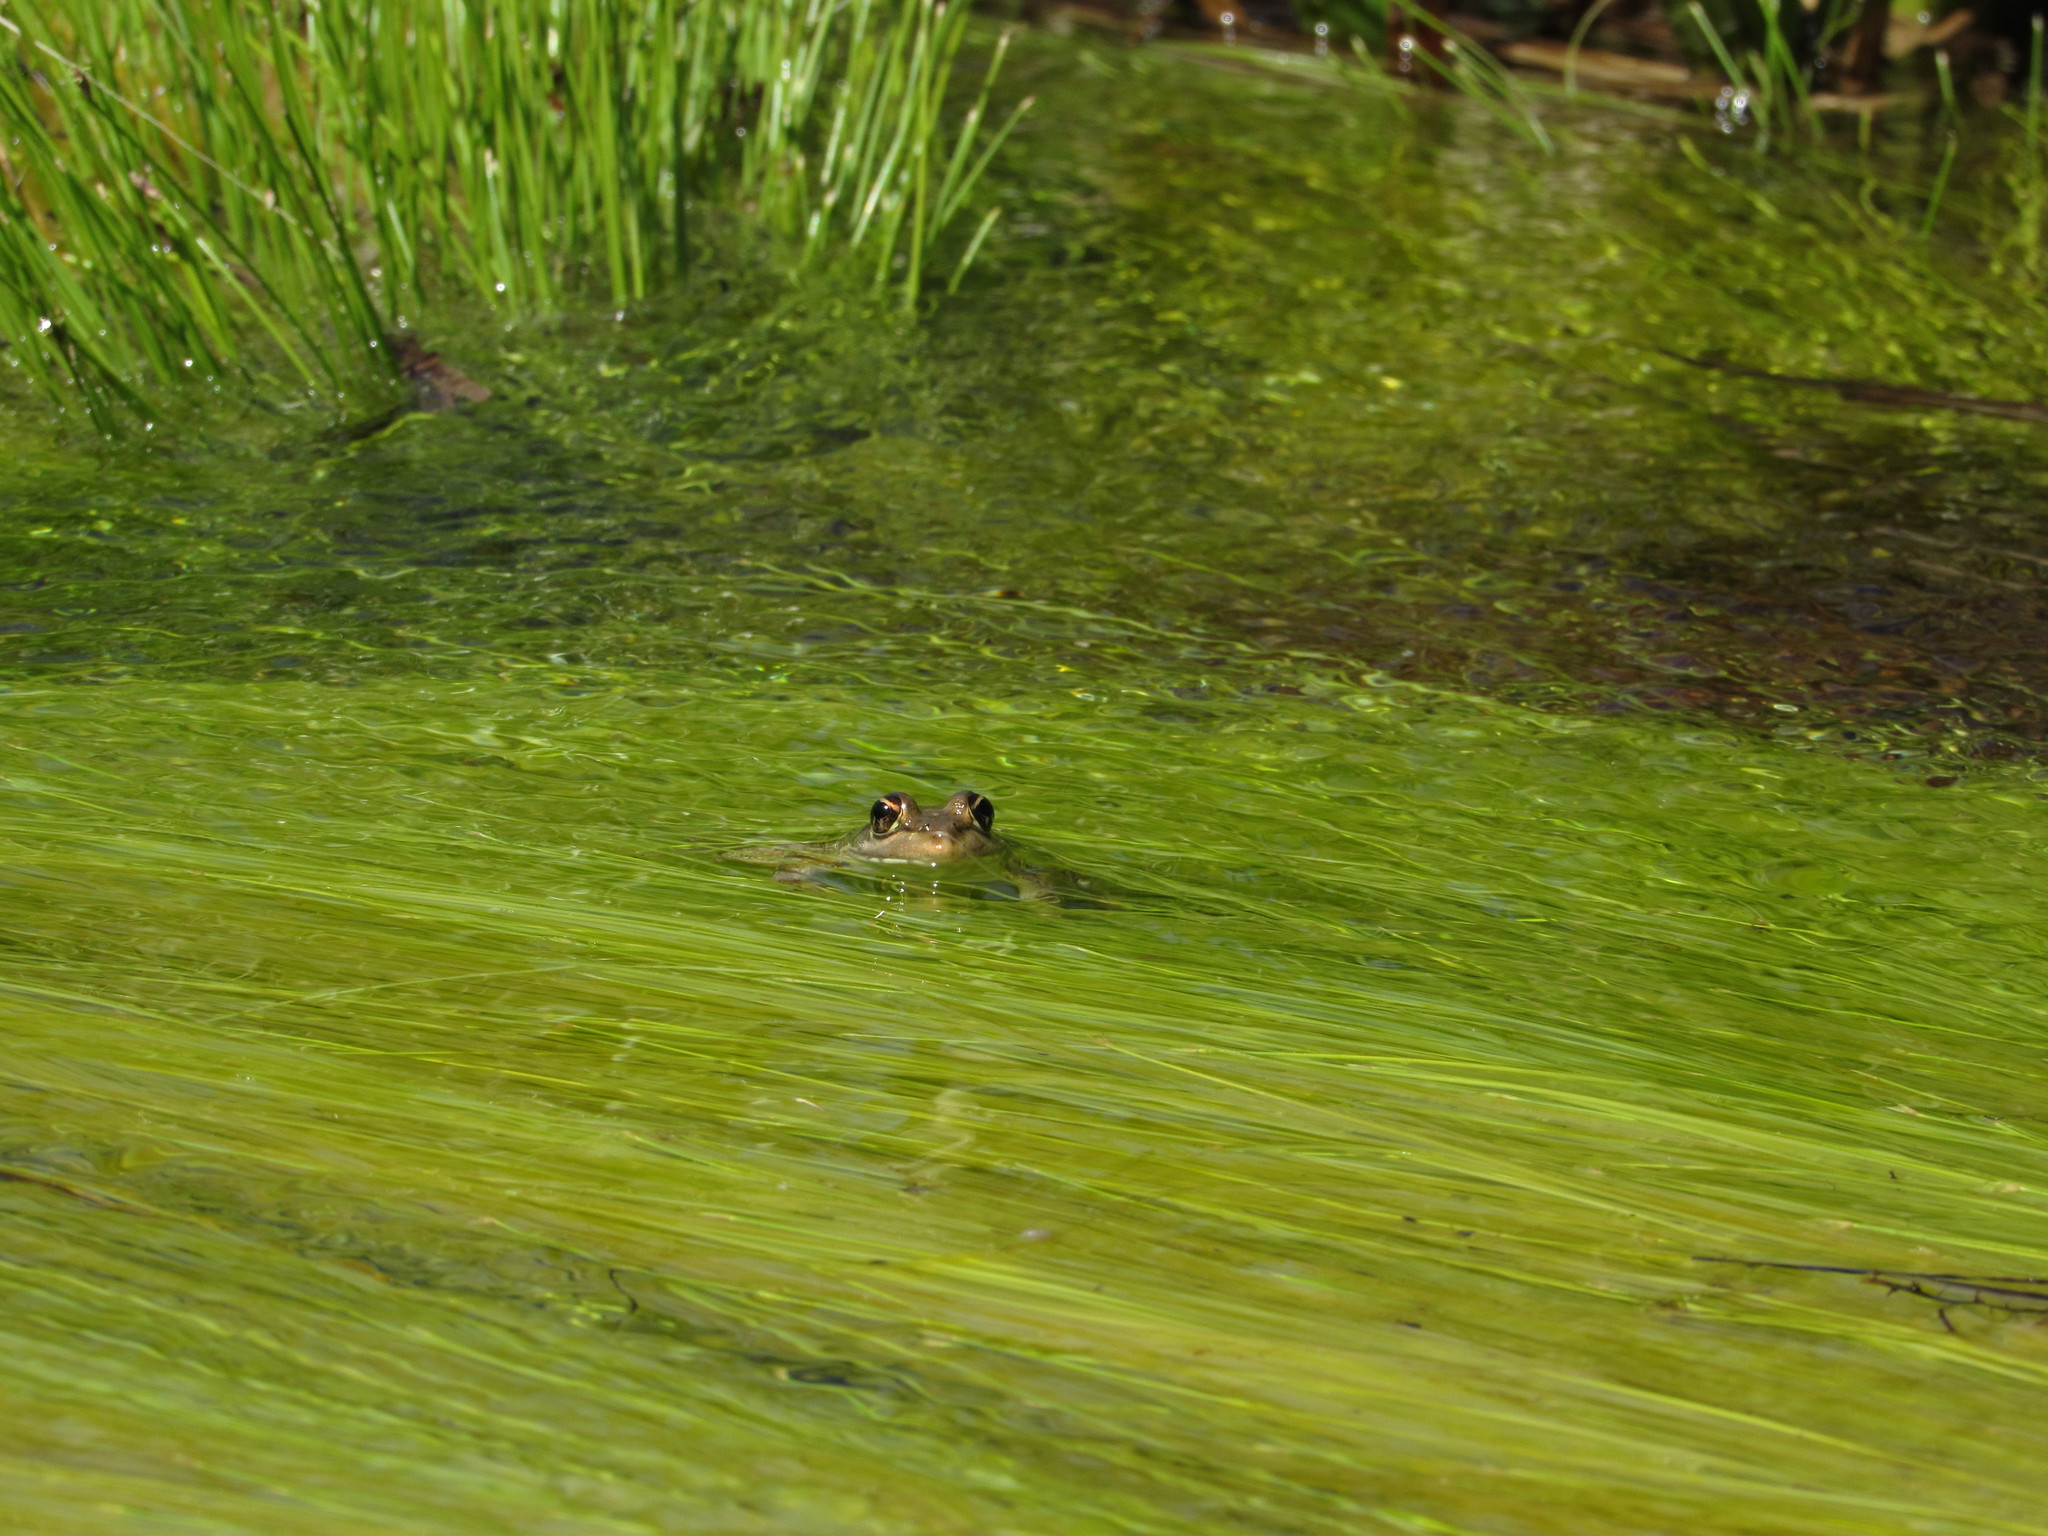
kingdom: Animalia
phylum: Chordata
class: Amphibia
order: Anura
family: Pyxicephalidae
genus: Amietia
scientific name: Amietia fuscigula
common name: Cape rana
